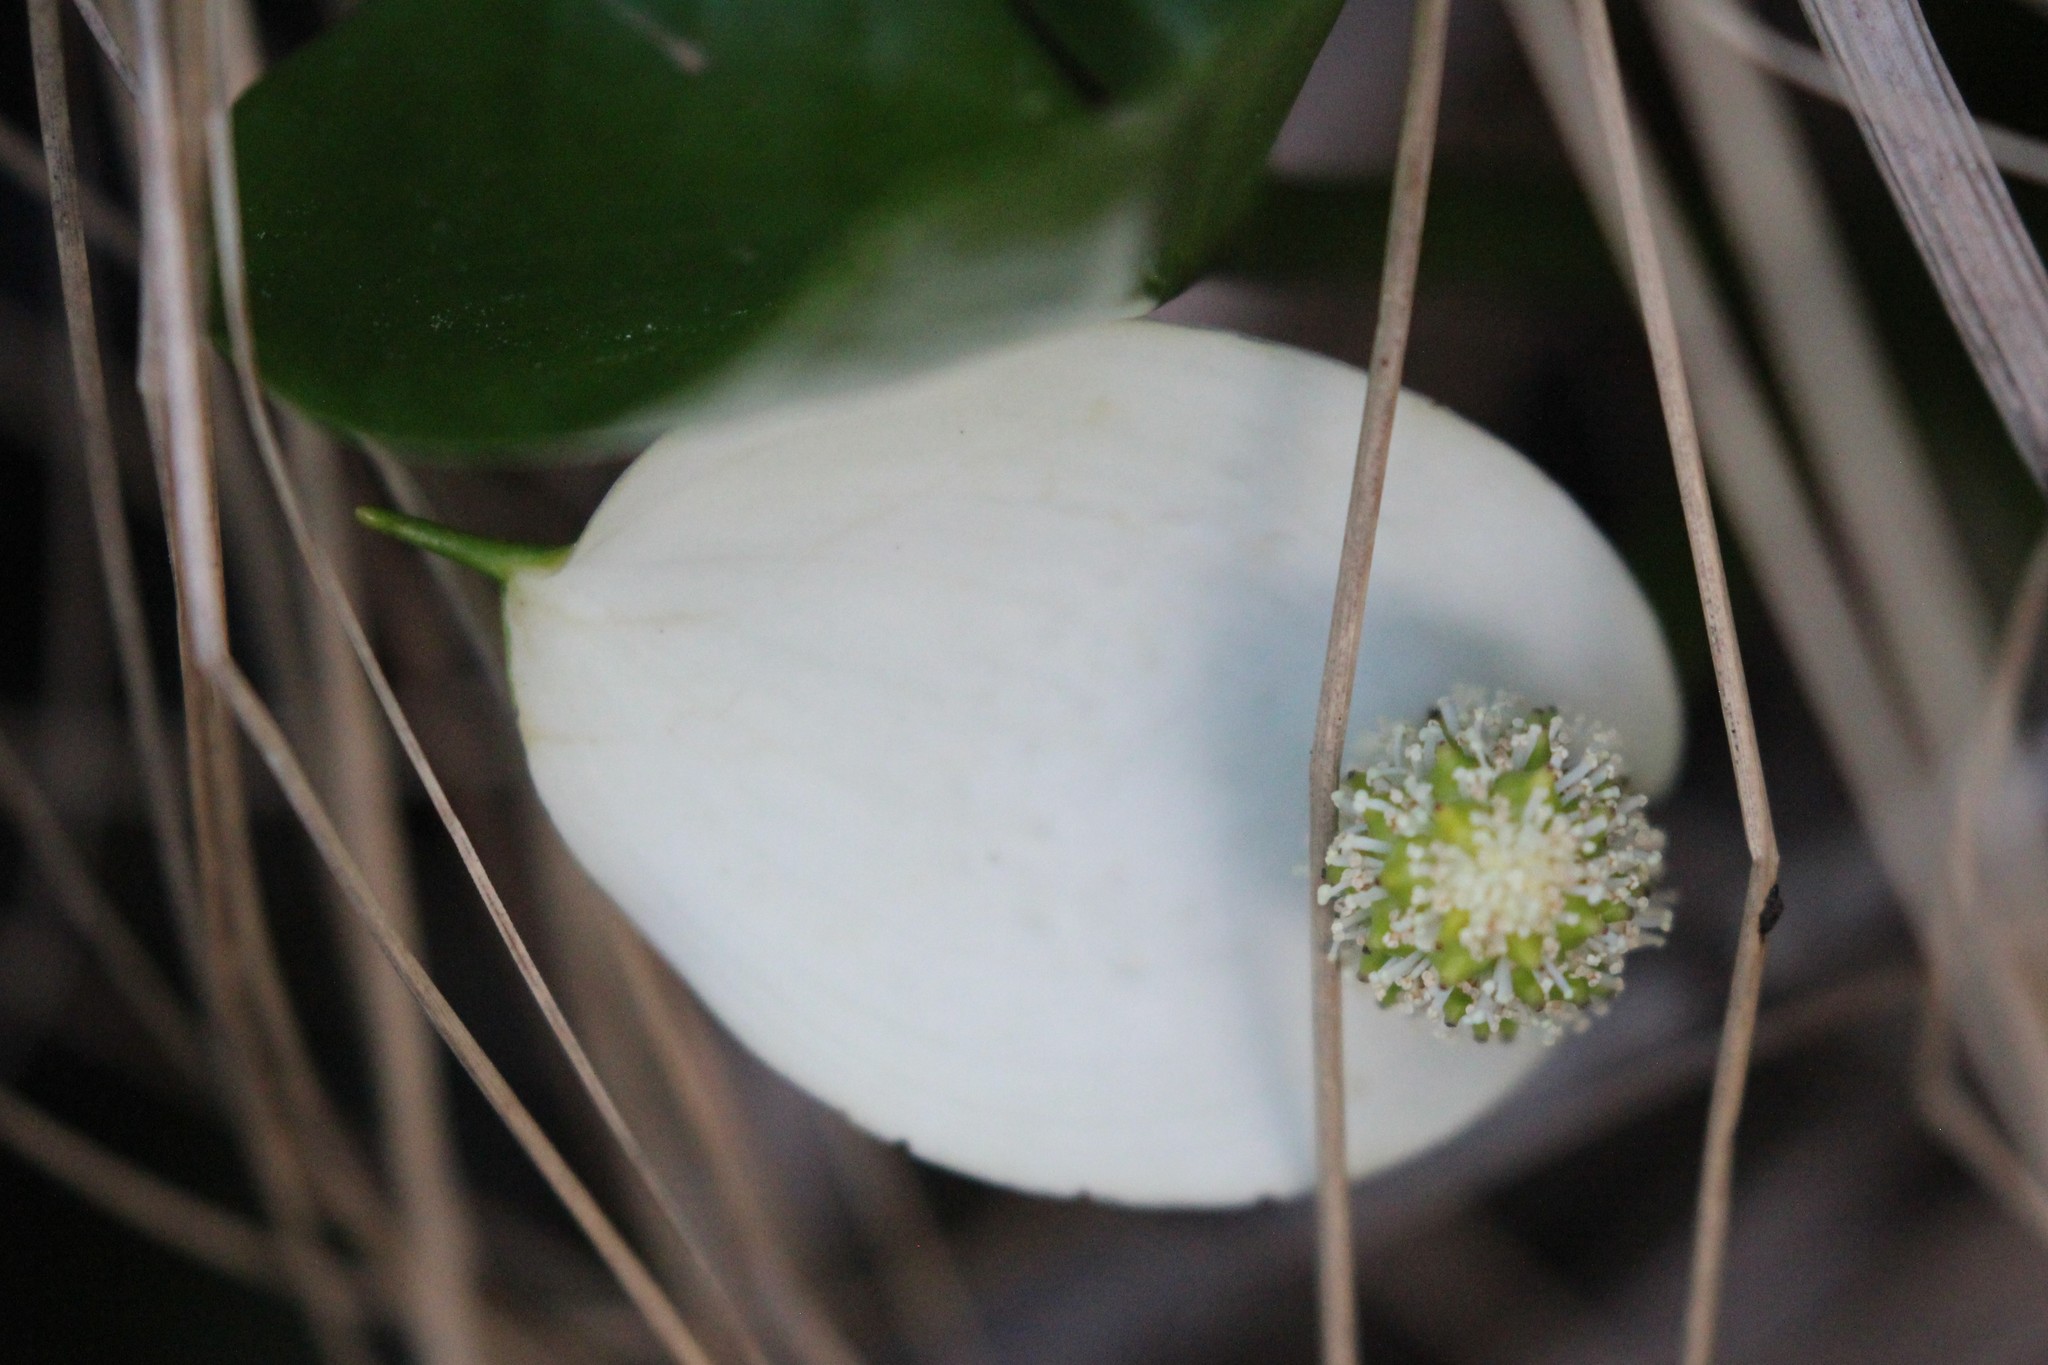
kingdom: Plantae
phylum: Tracheophyta
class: Liliopsida
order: Alismatales
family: Araceae
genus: Calla
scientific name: Calla palustris
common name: Bog arum
